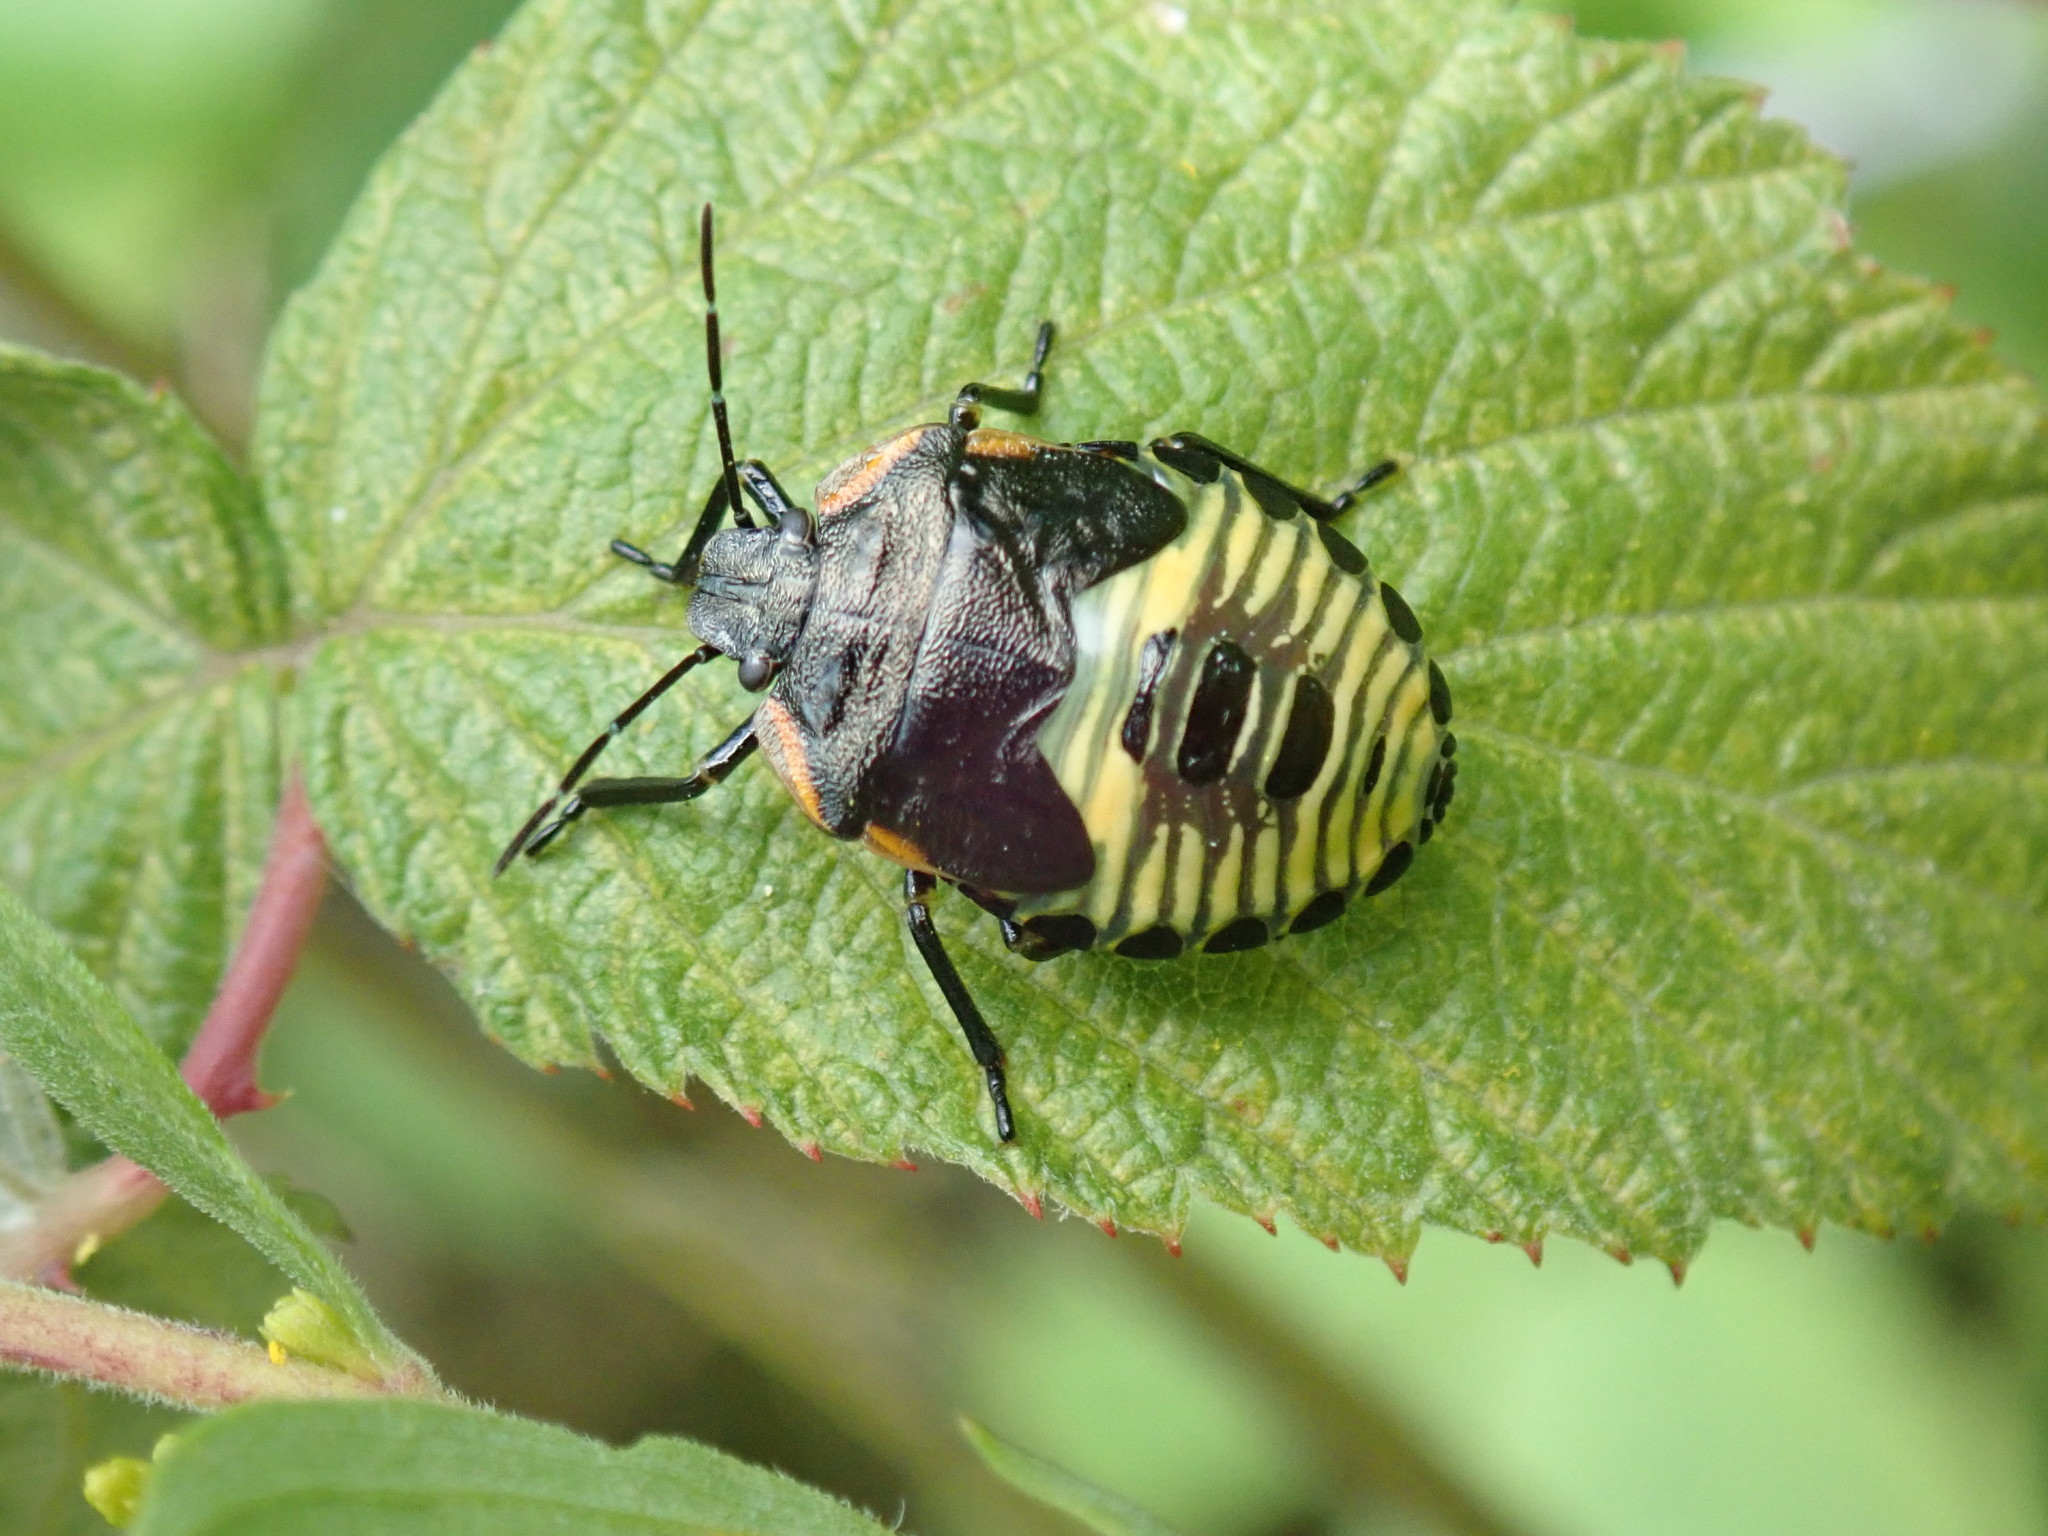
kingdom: Animalia
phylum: Arthropoda
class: Insecta
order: Hemiptera
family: Pentatomidae
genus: Chinavia
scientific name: Chinavia hilaris
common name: Green stink bug
